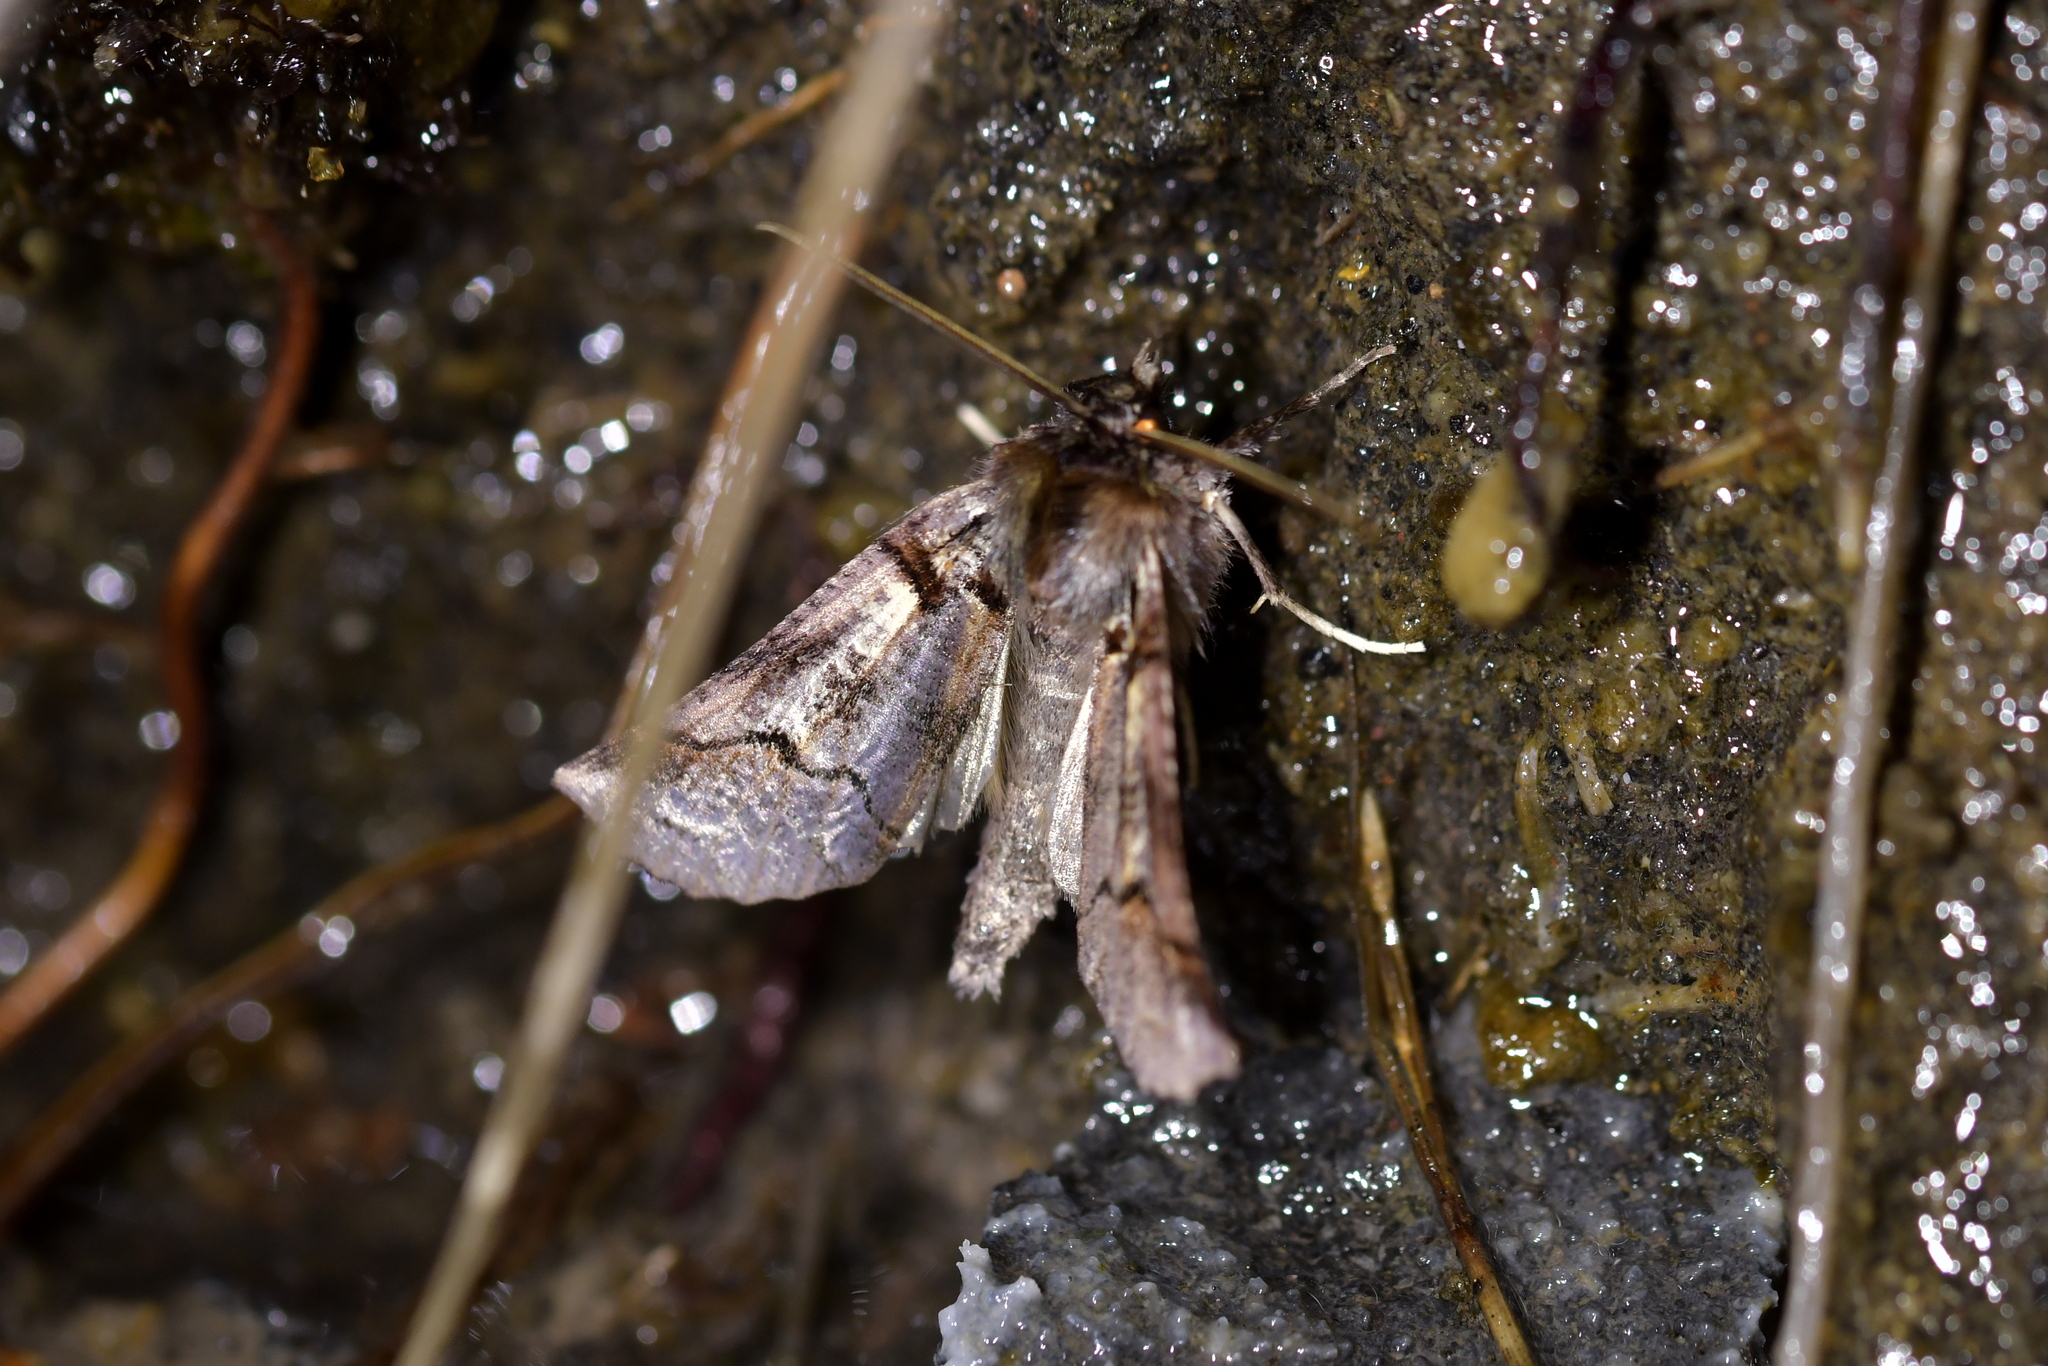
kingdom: Animalia
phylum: Arthropoda
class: Insecta
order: Lepidoptera
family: Geometridae
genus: Declana
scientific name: Declana
